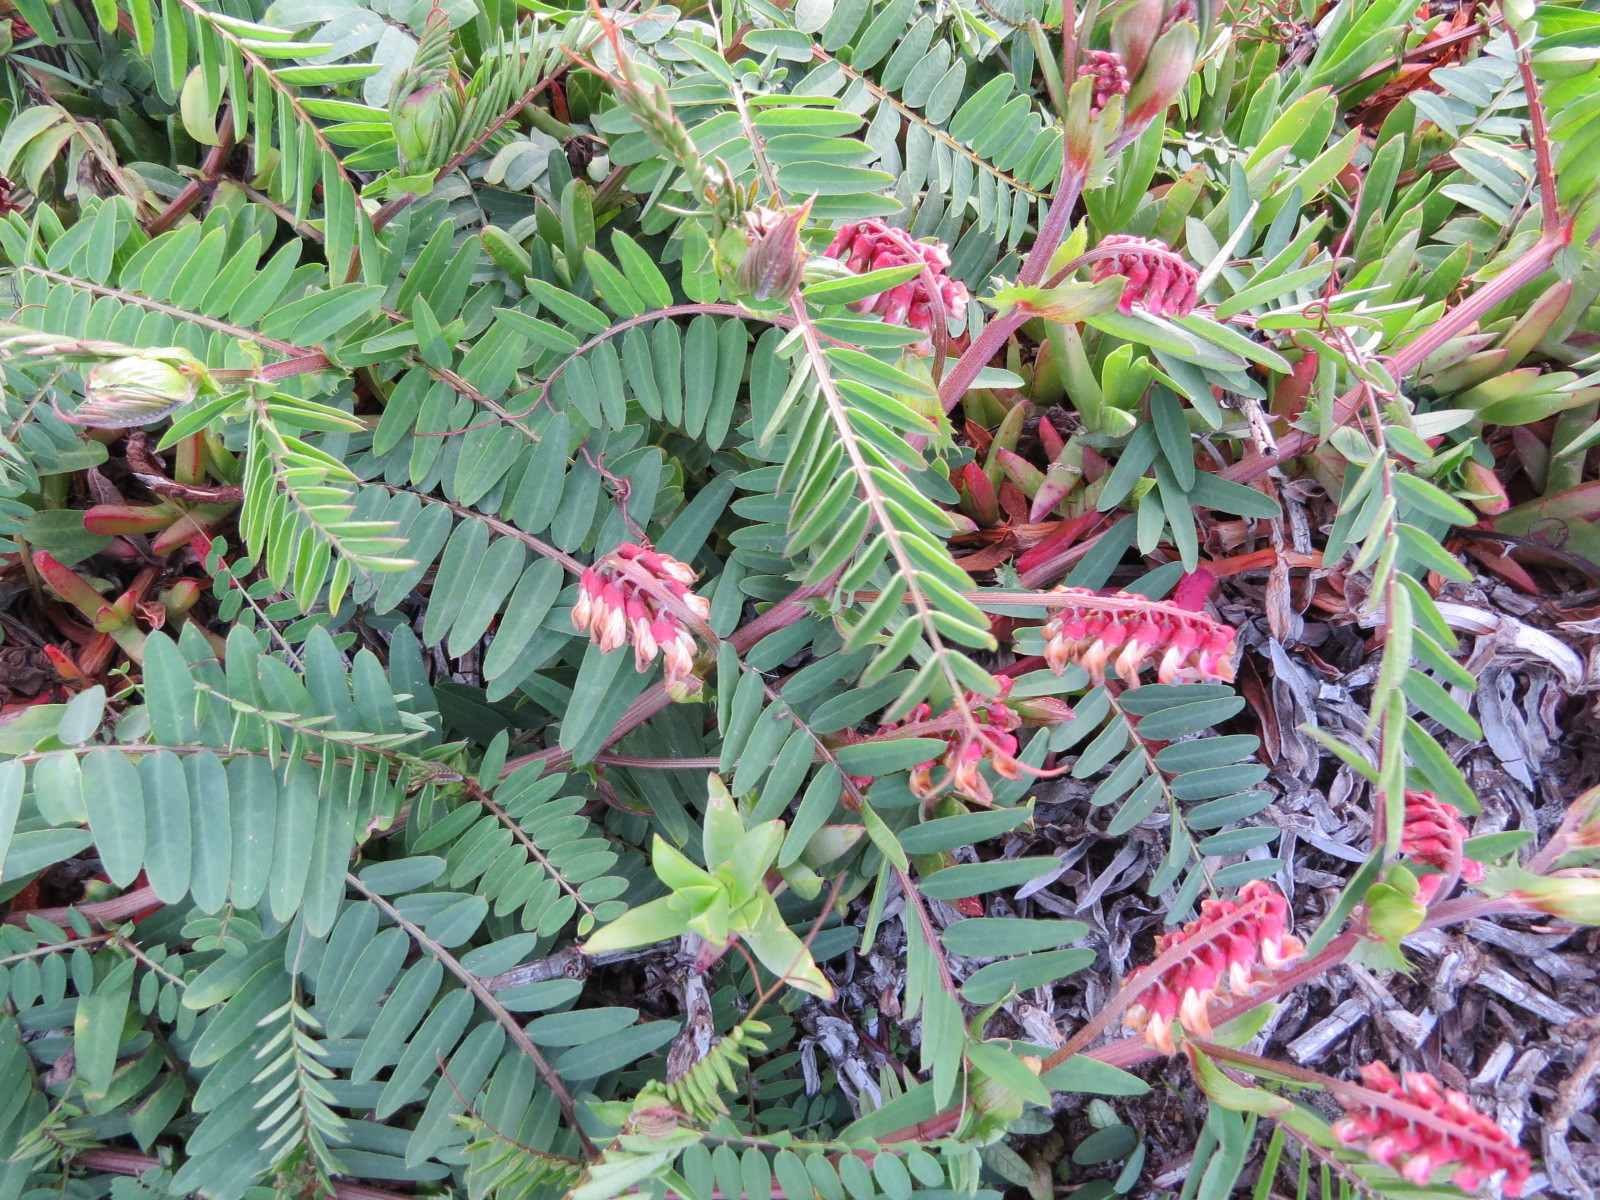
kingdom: Plantae
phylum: Tracheophyta
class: Magnoliopsida
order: Fabales
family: Fabaceae
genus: Vicia
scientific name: Vicia
